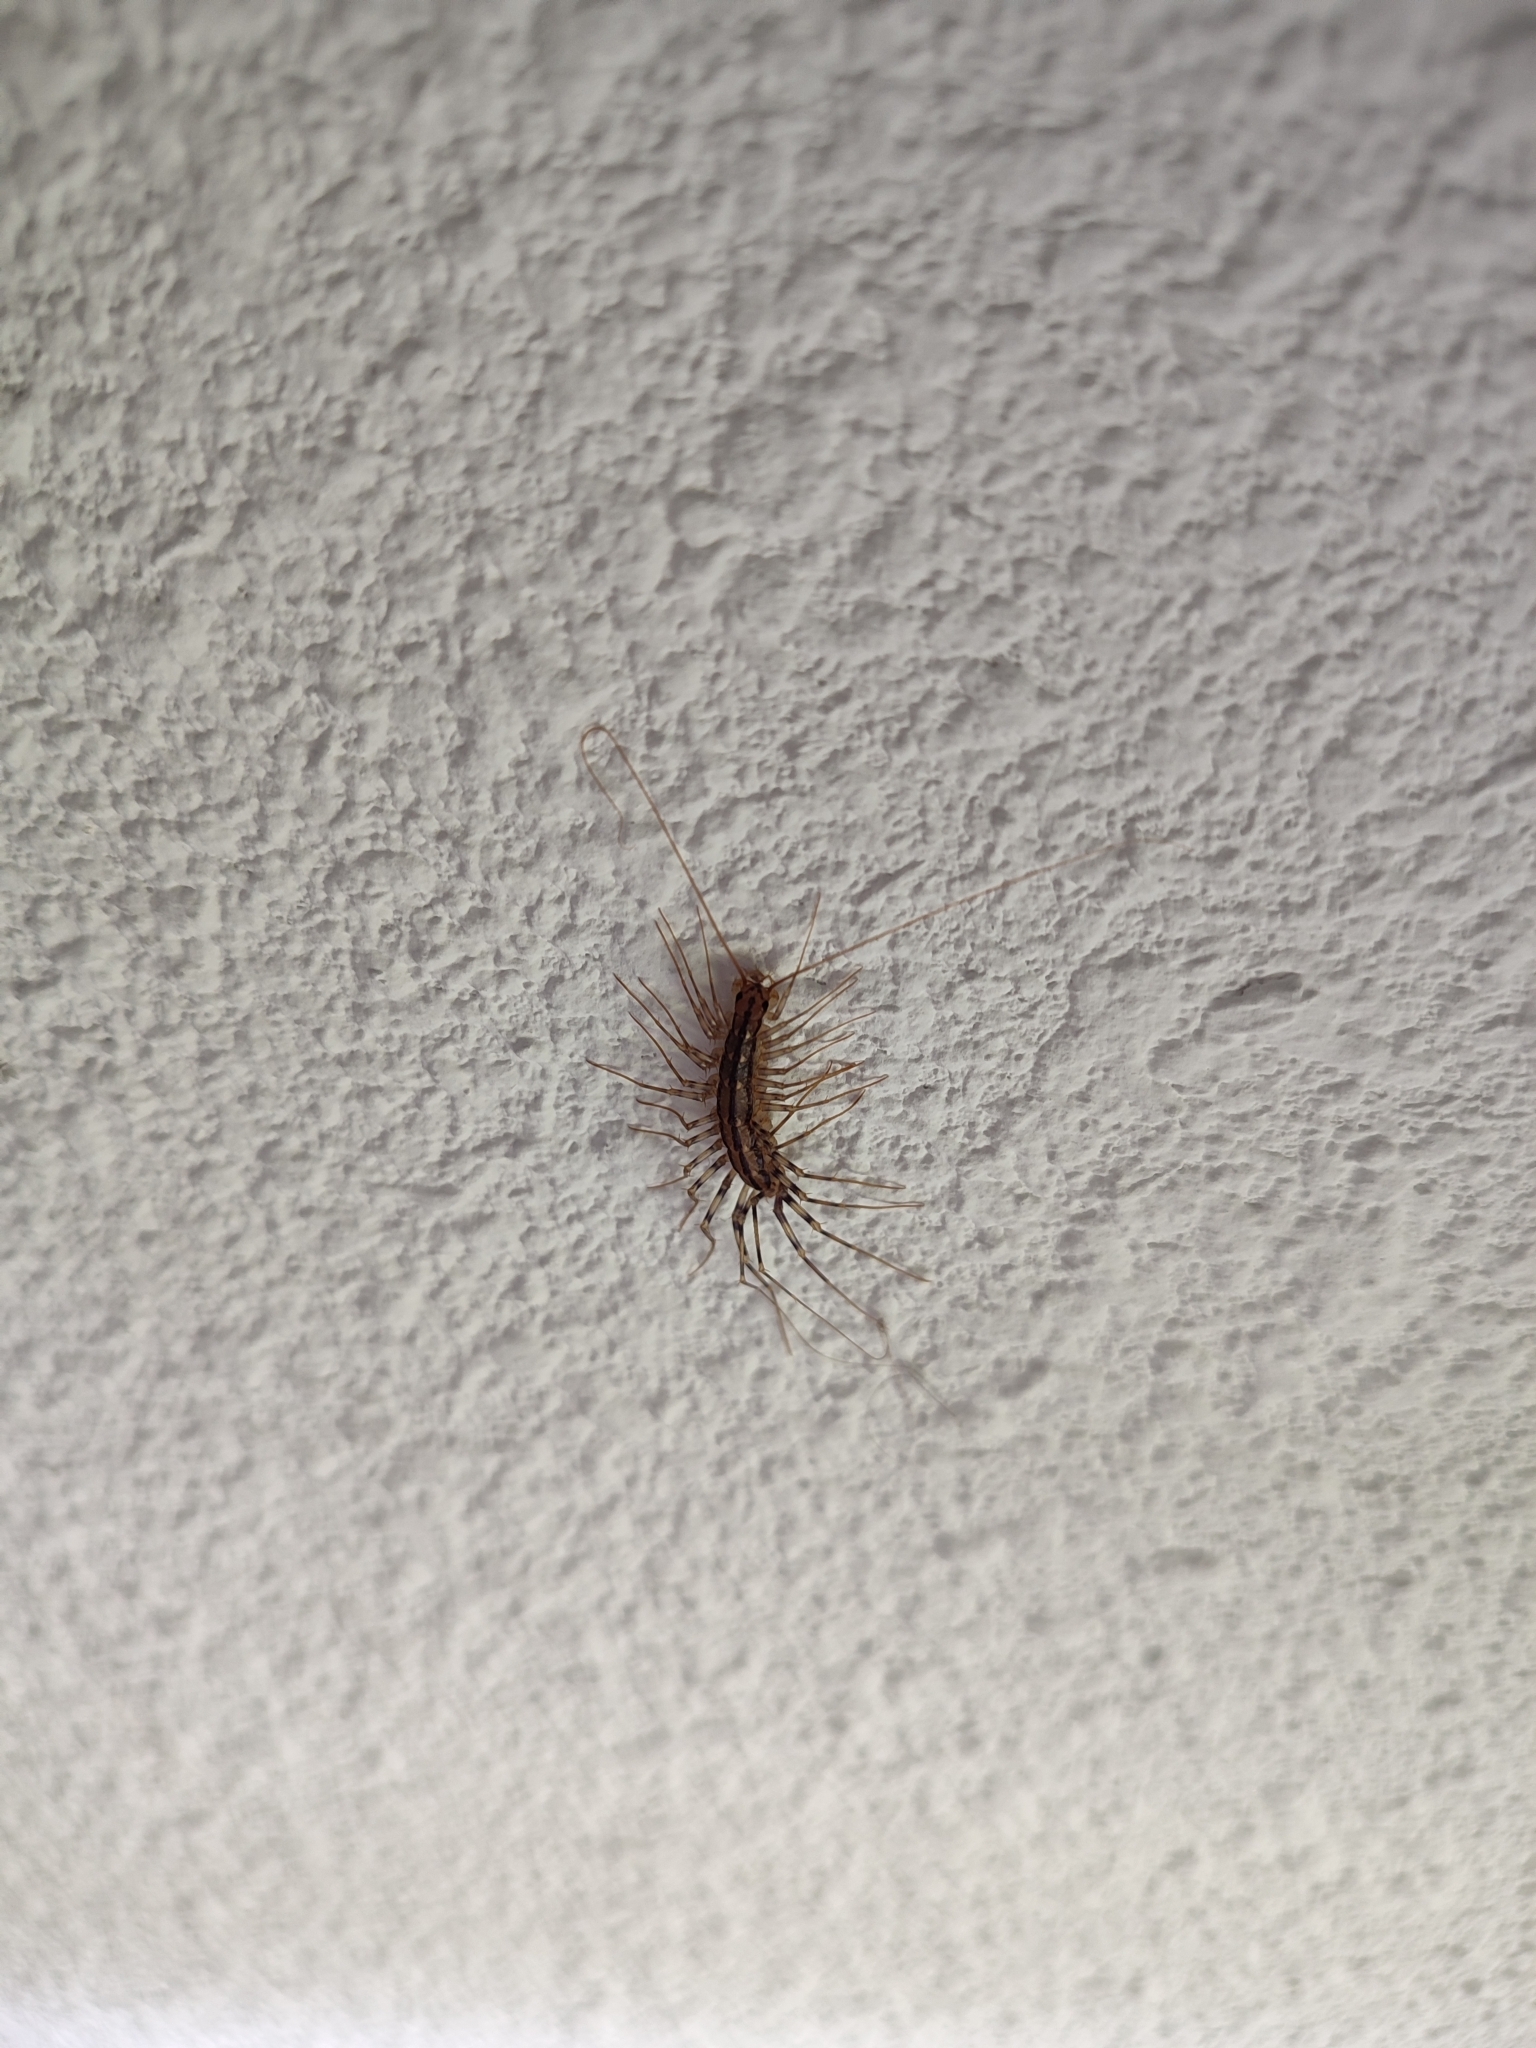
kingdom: Animalia
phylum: Arthropoda
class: Chilopoda
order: Scutigeromorpha
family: Scutigeridae
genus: Scutigera
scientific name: Scutigera coleoptrata
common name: House centipede
